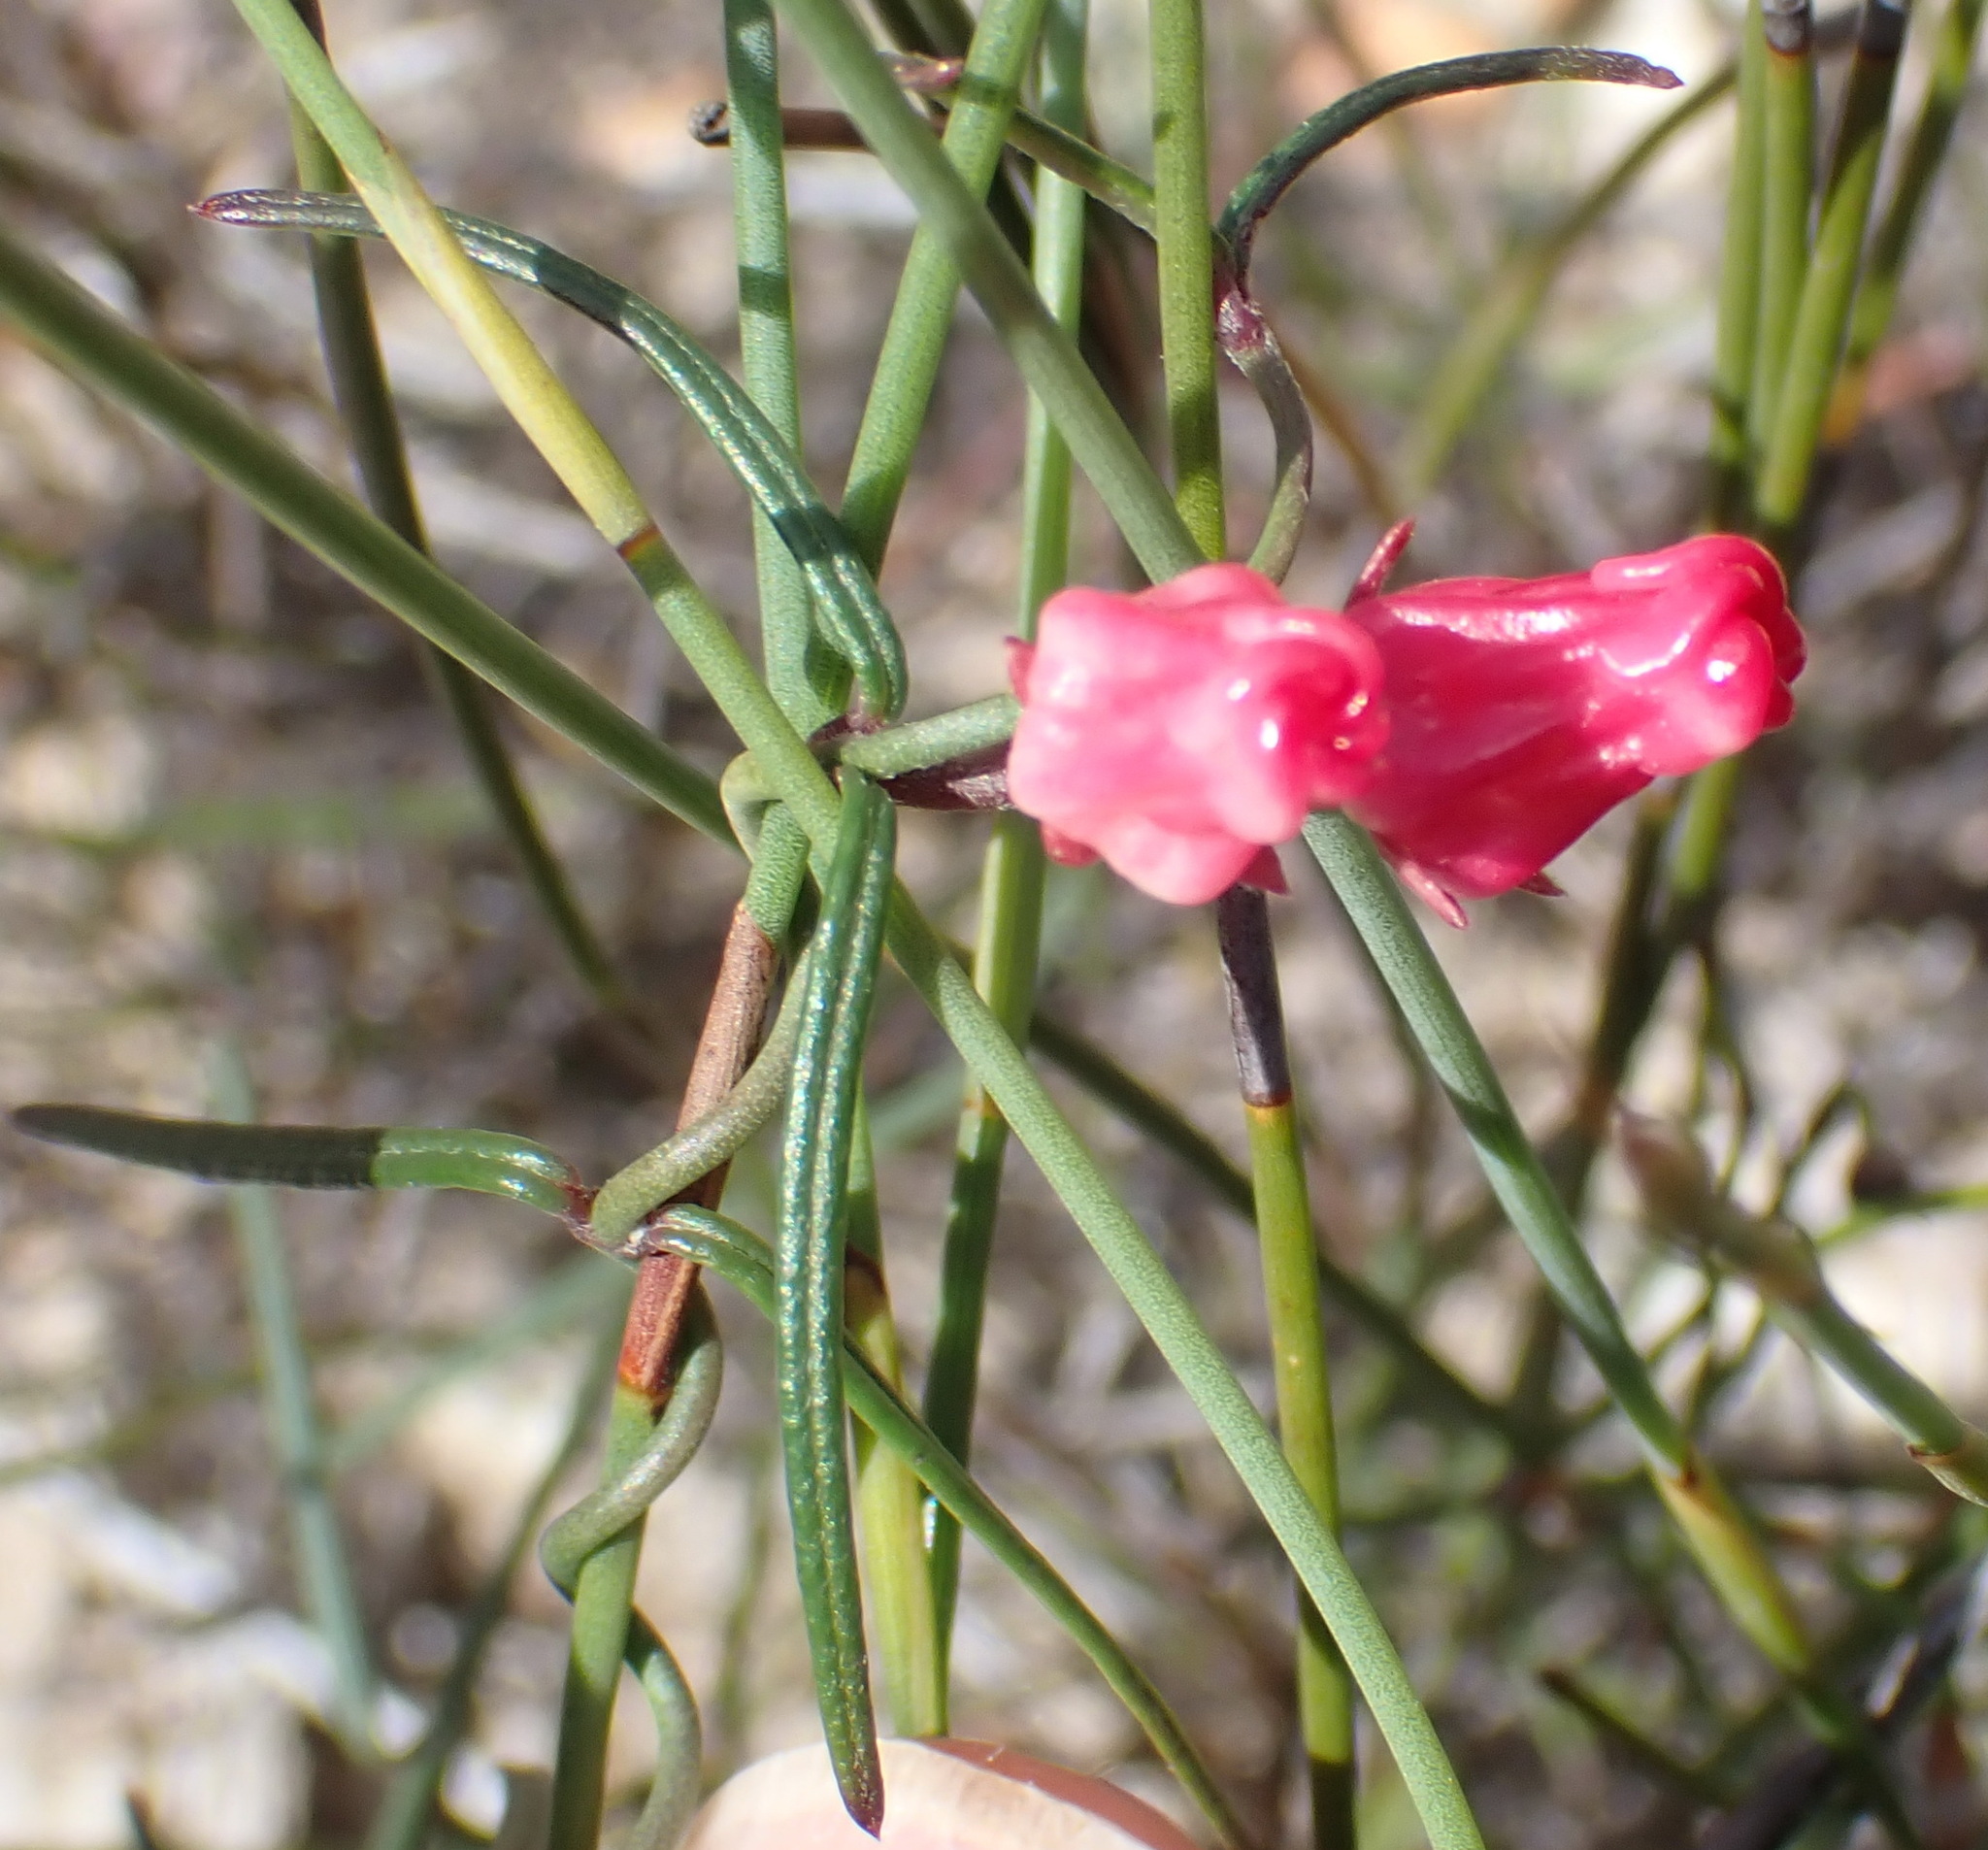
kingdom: Plantae
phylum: Tracheophyta
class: Magnoliopsida
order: Gentianales
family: Apocynaceae
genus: Microloma
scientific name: Microloma tenuifolium
